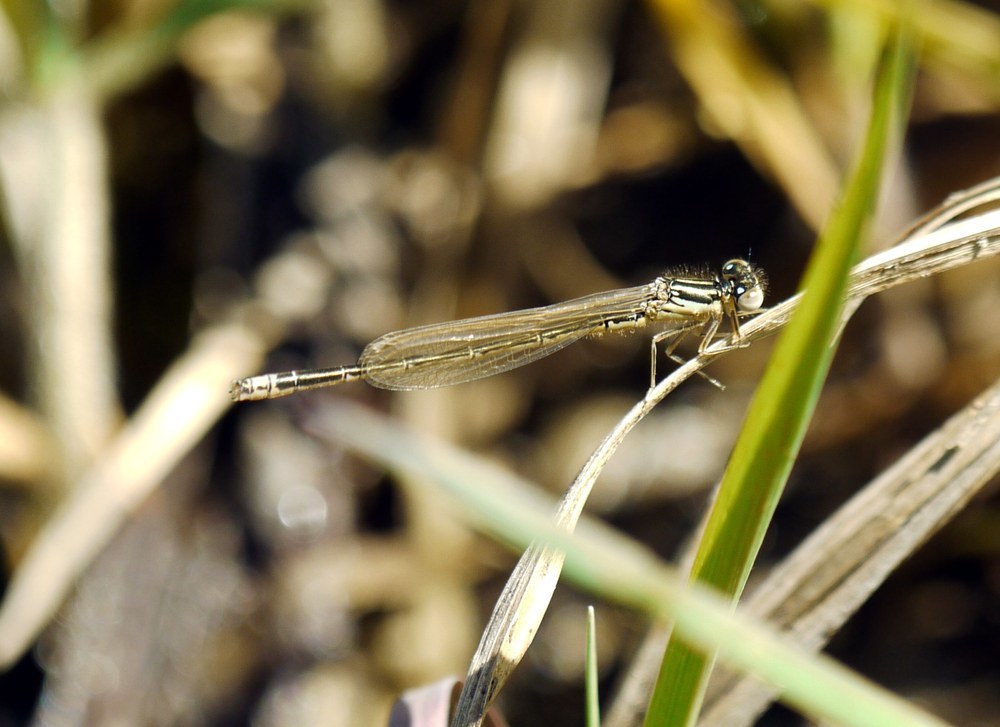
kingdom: Animalia
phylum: Arthropoda
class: Insecta
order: Odonata
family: Coenagrionidae
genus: Ischnura
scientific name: Ischnura pumilio
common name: Scarce blue-tailed damselfly
